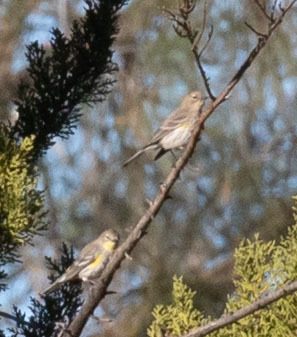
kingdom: Animalia
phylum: Chordata
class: Aves
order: Passeriformes
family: Parulidae
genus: Setophaga
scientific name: Setophaga coronata
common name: Myrtle warbler
